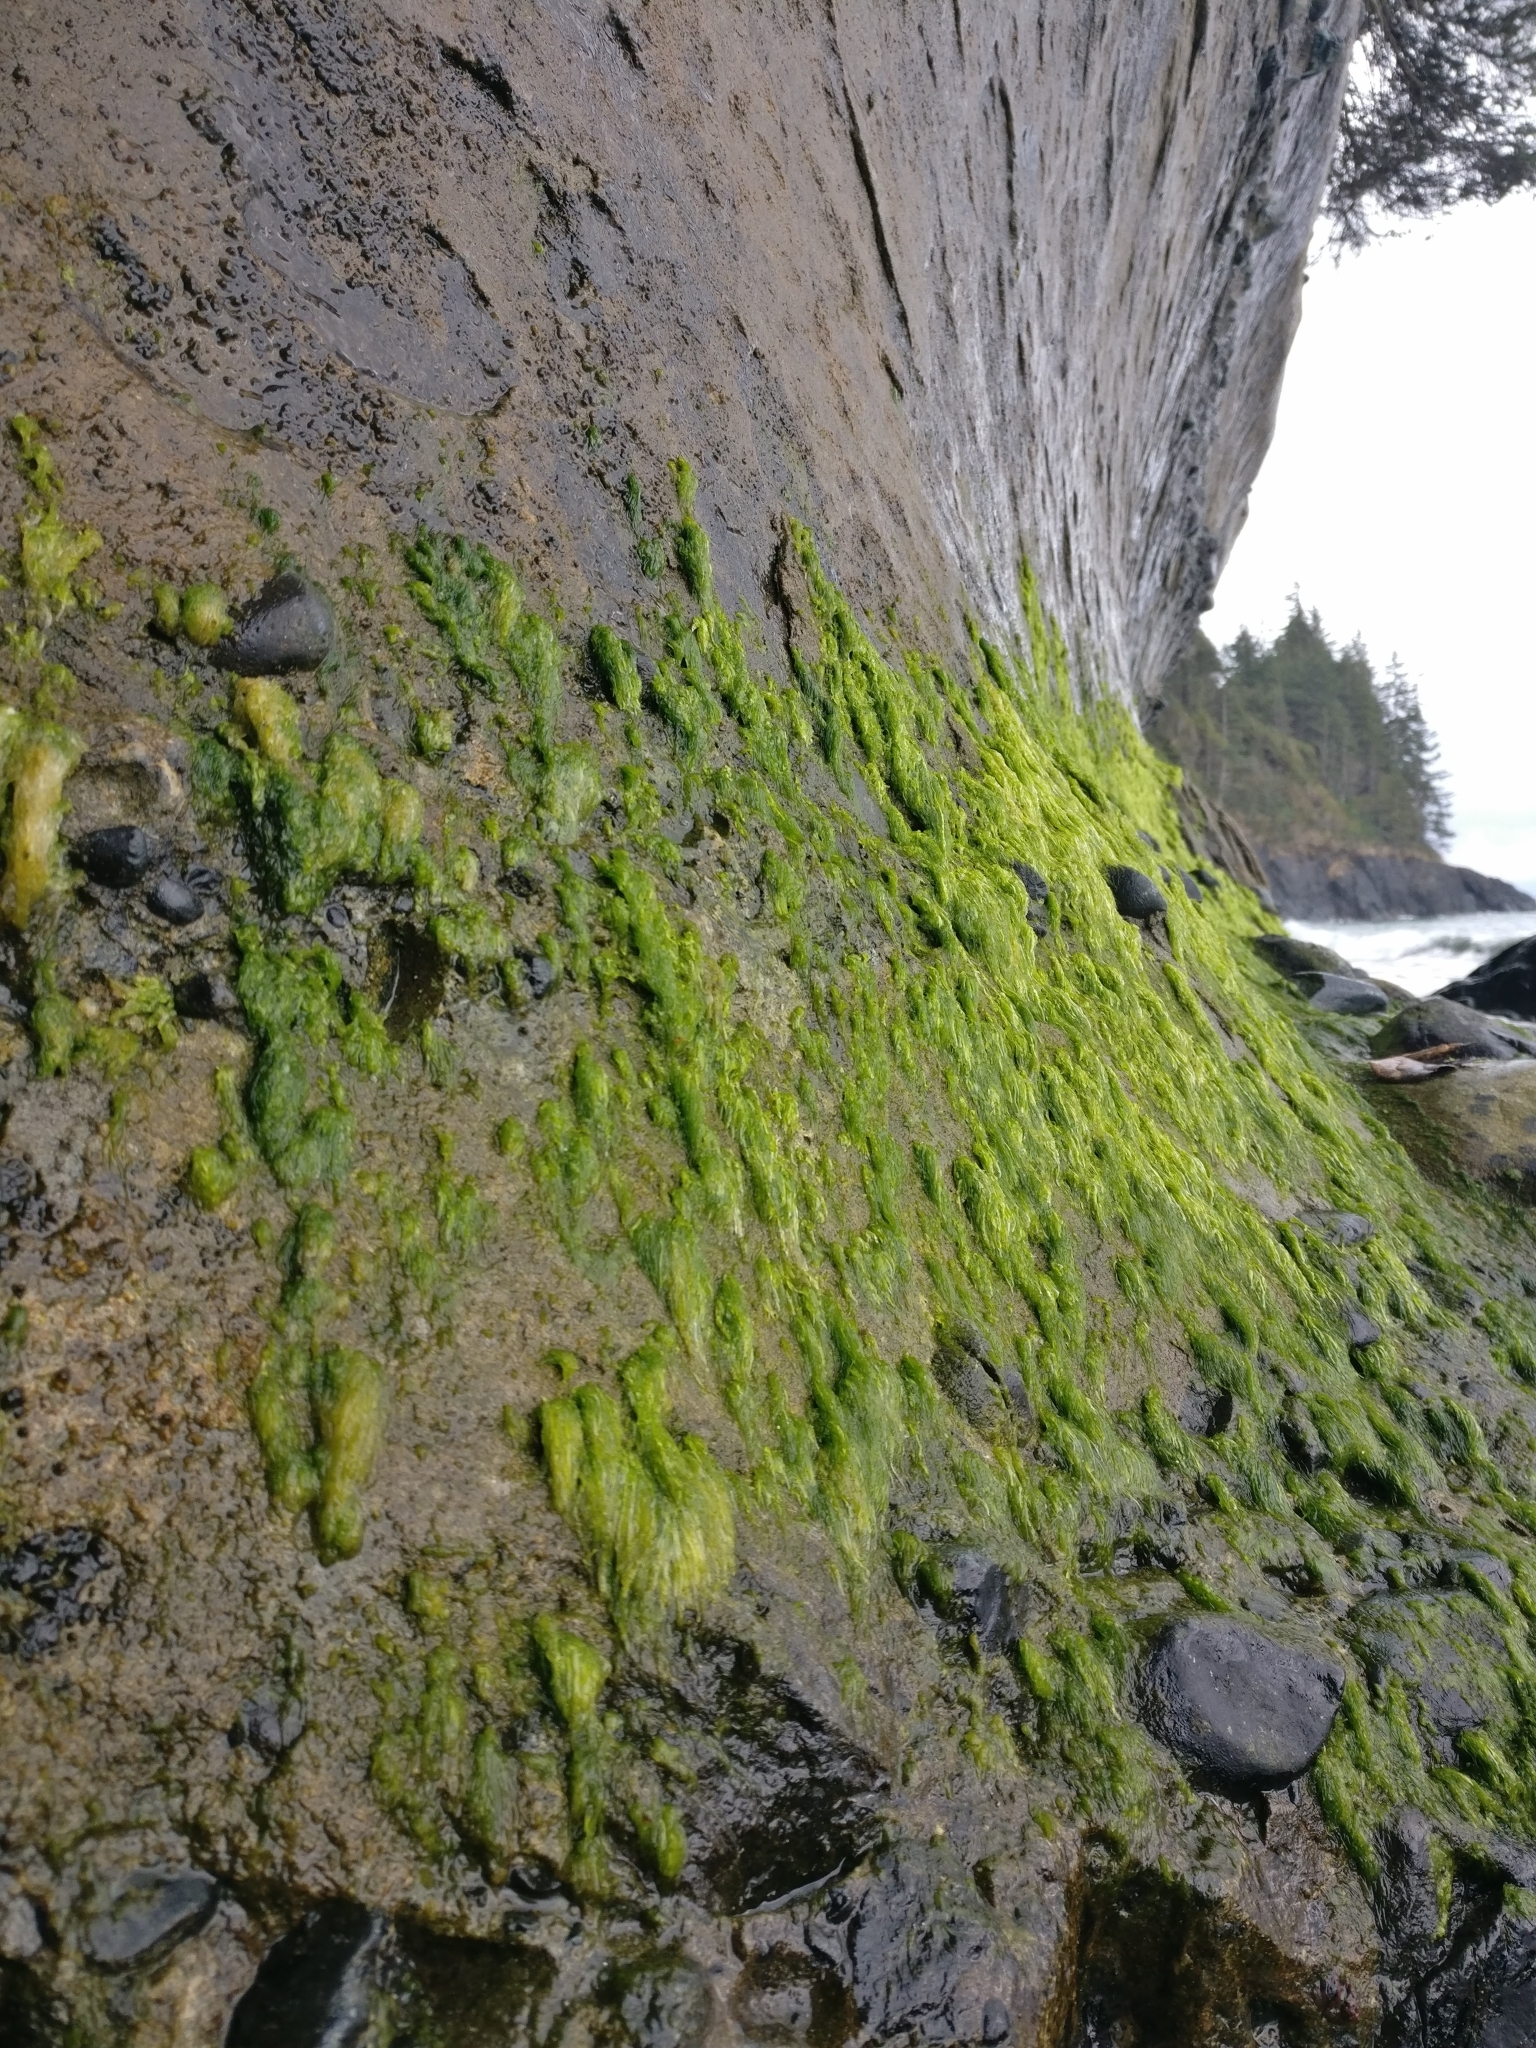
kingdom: Plantae
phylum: Chlorophyta
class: Ulvophyceae
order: Ulvales
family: Ulvaceae
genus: Ulva
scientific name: Ulva intestinalis
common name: Gut weed
